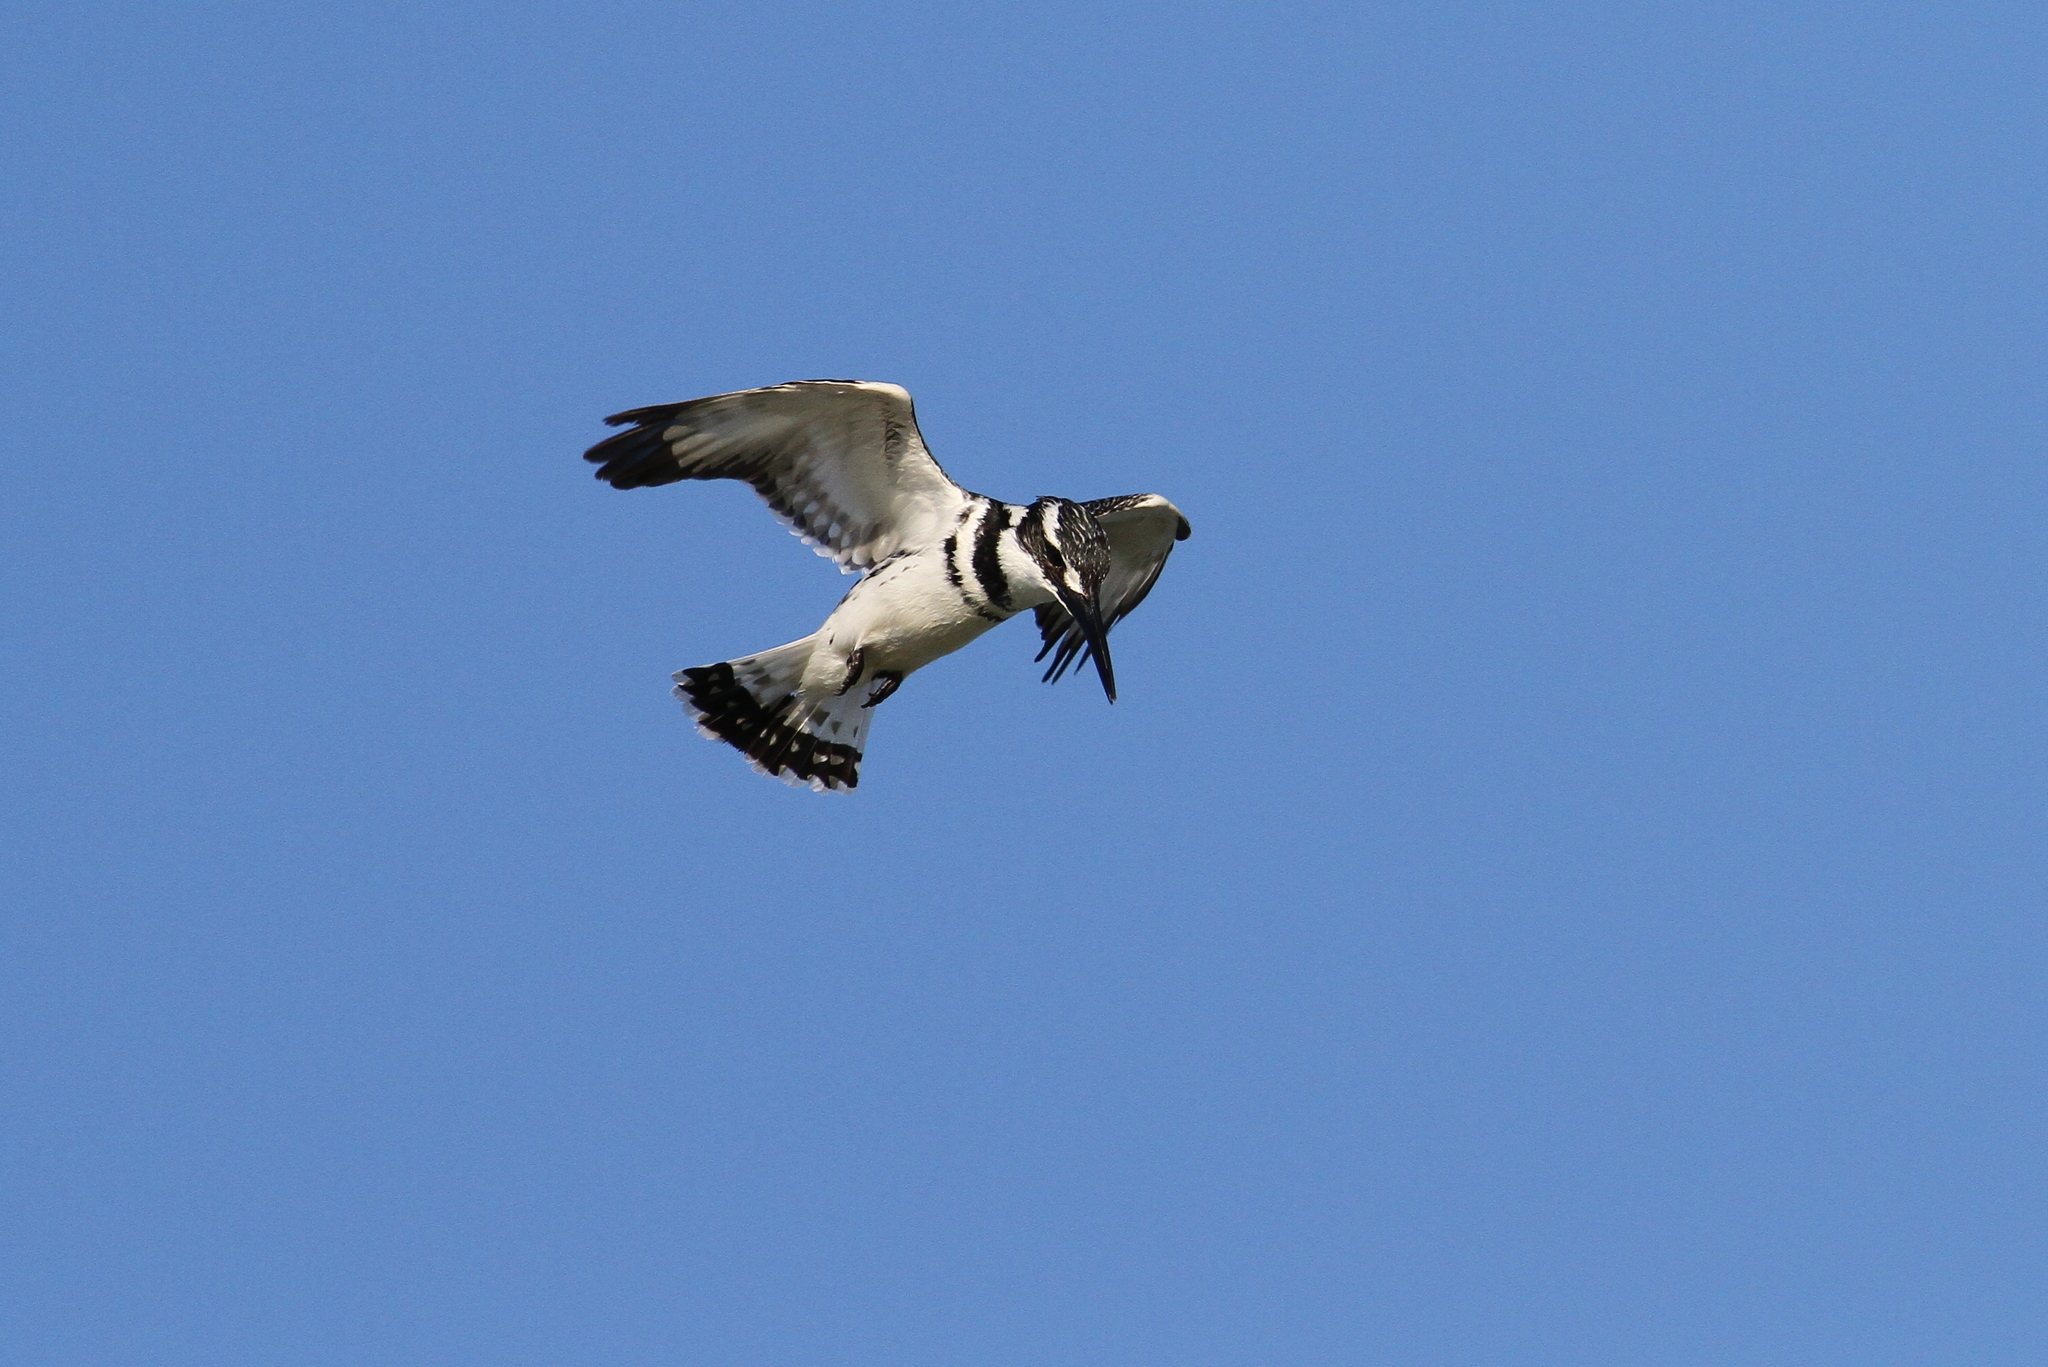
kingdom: Animalia
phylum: Chordata
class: Aves
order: Coraciiformes
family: Alcedinidae
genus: Ceryle
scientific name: Ceryle rudis
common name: Pied kingfisher
